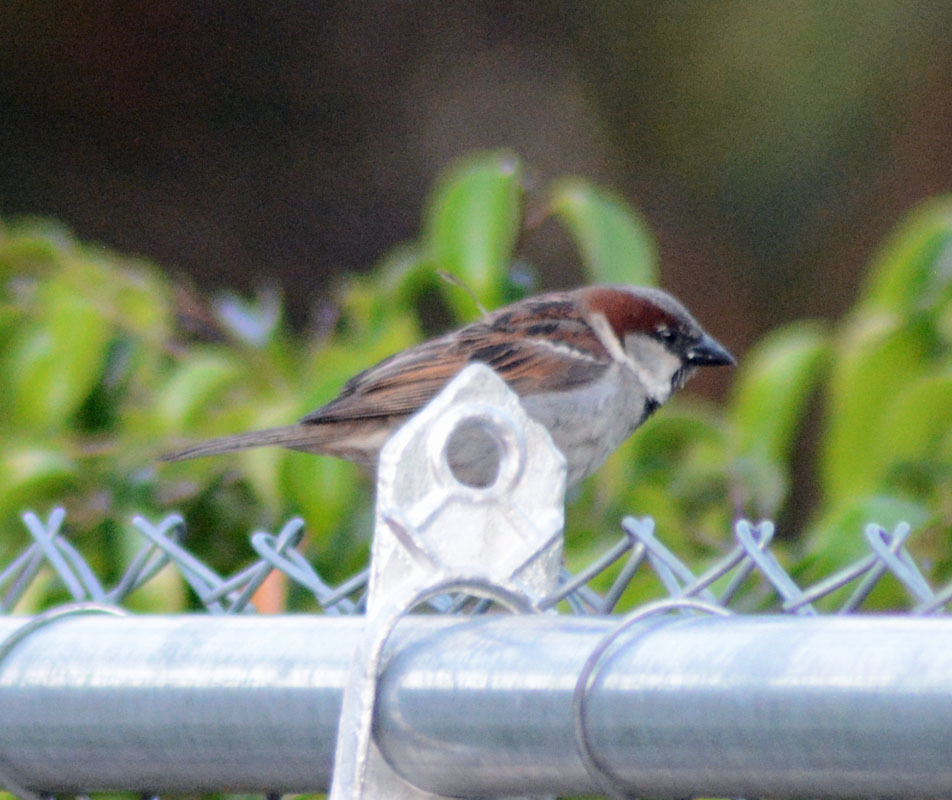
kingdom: Animalia
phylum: Chordata
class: Aves
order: Passeriformes
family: Passeridae
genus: Passer
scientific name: Passer domesticus
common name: House sparrow
